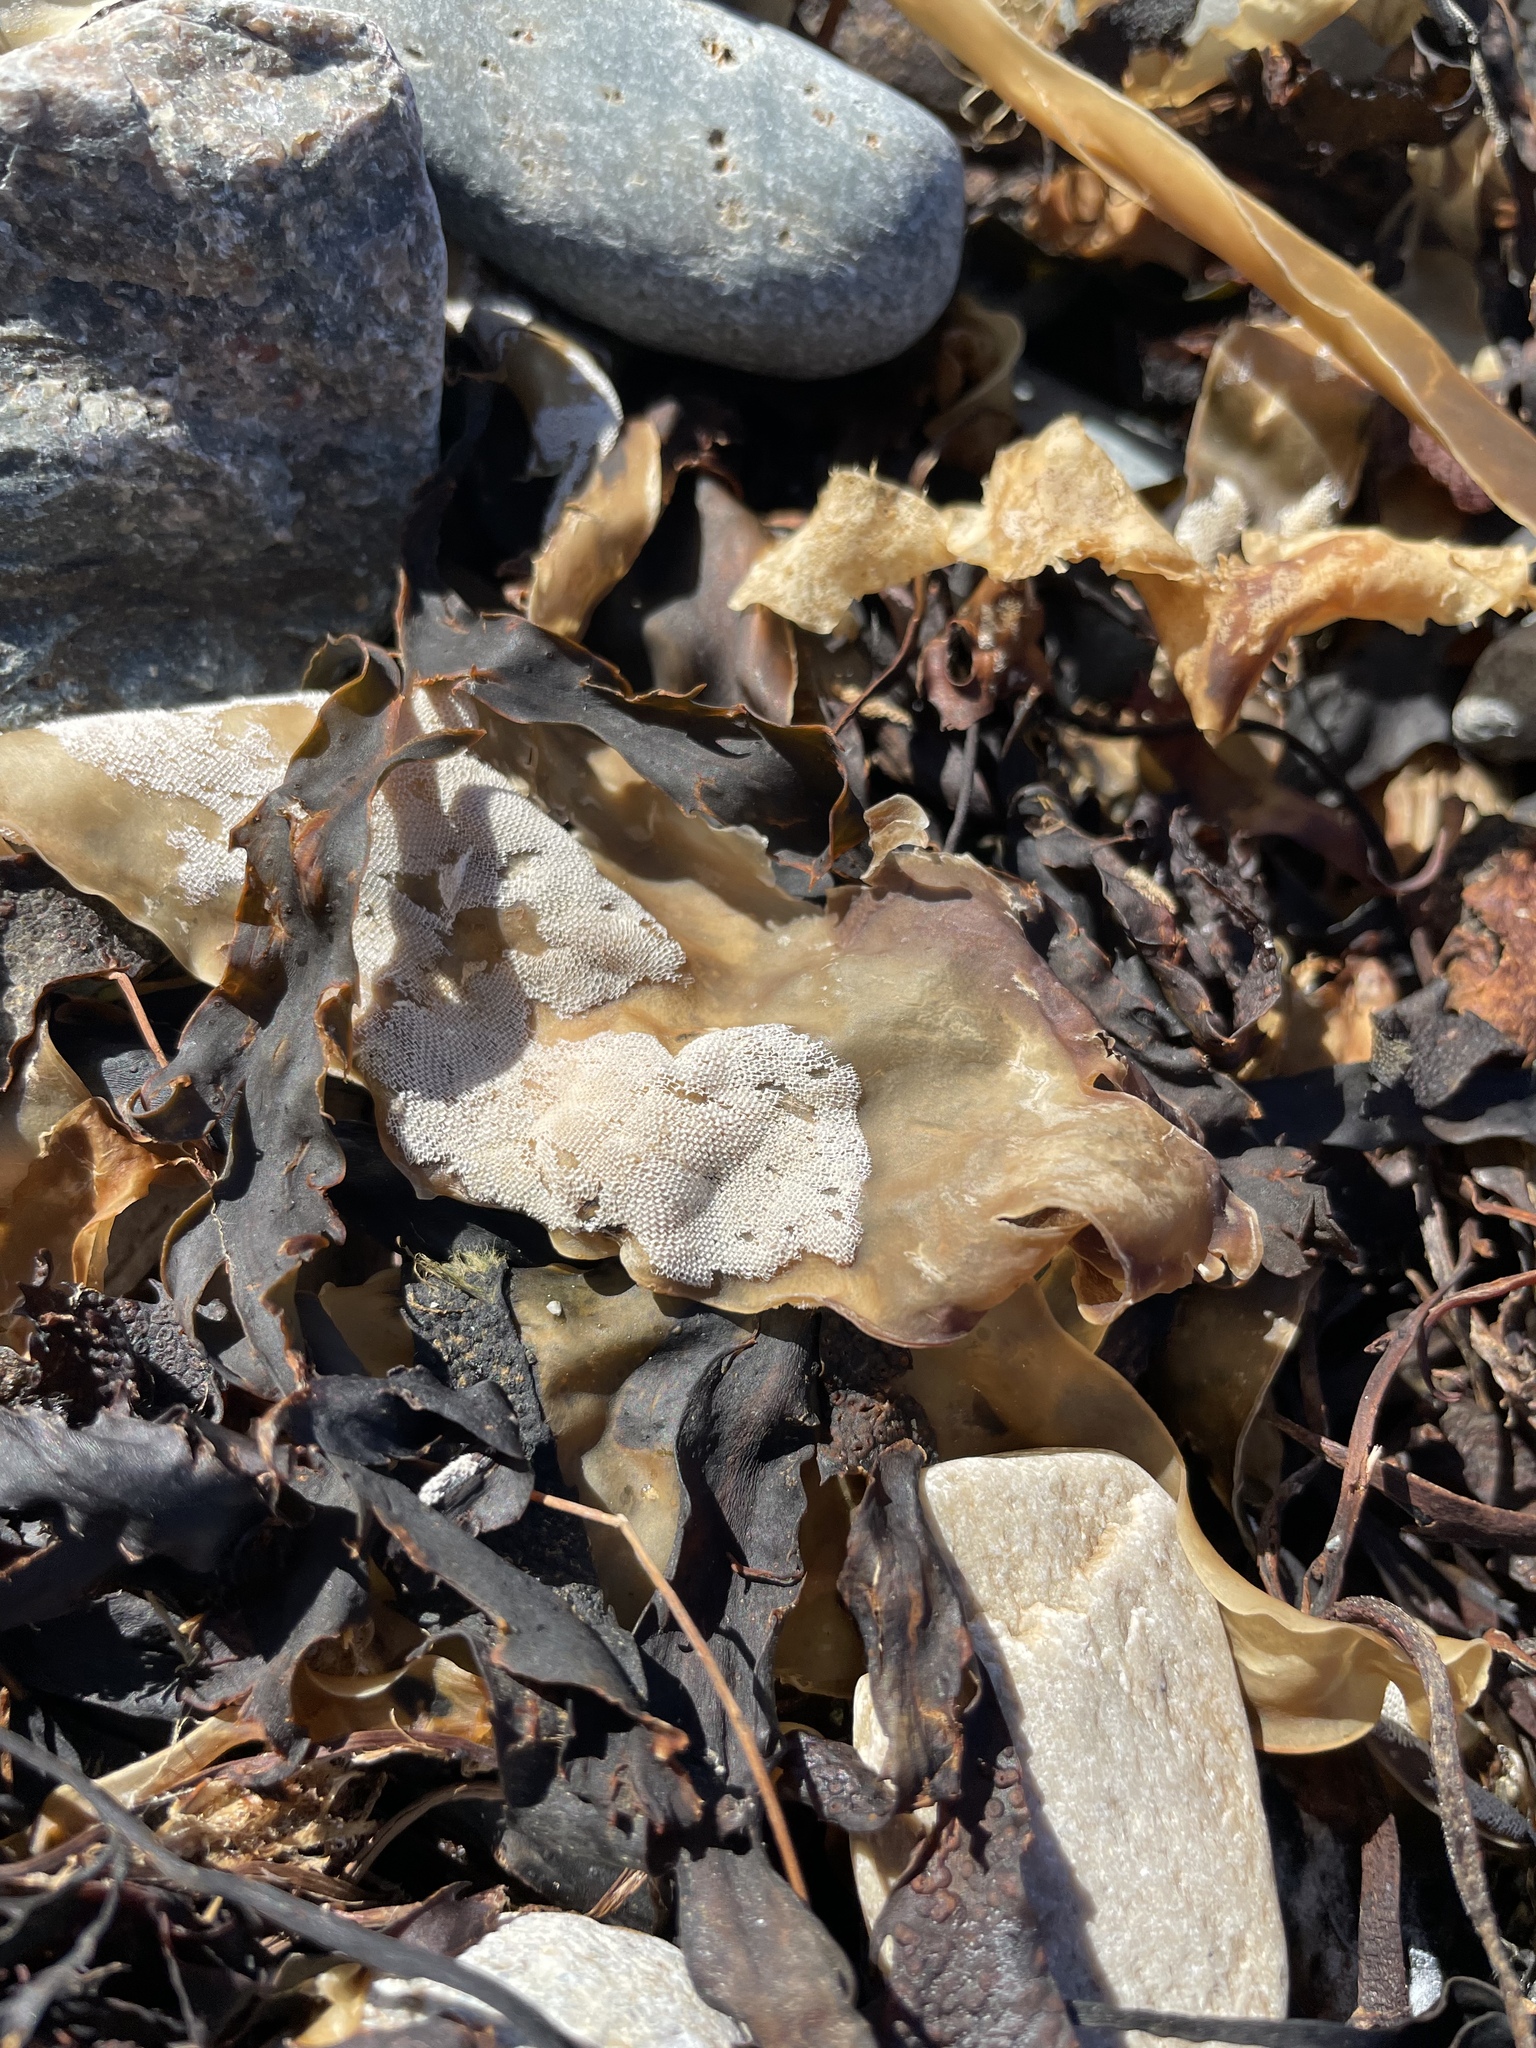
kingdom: Animalia
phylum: Bryozoa
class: Gymnolaemata
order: Cheilostomatida
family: Membraniporidae
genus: Membranipora
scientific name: Membranipora membranacea
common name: Sea mat
